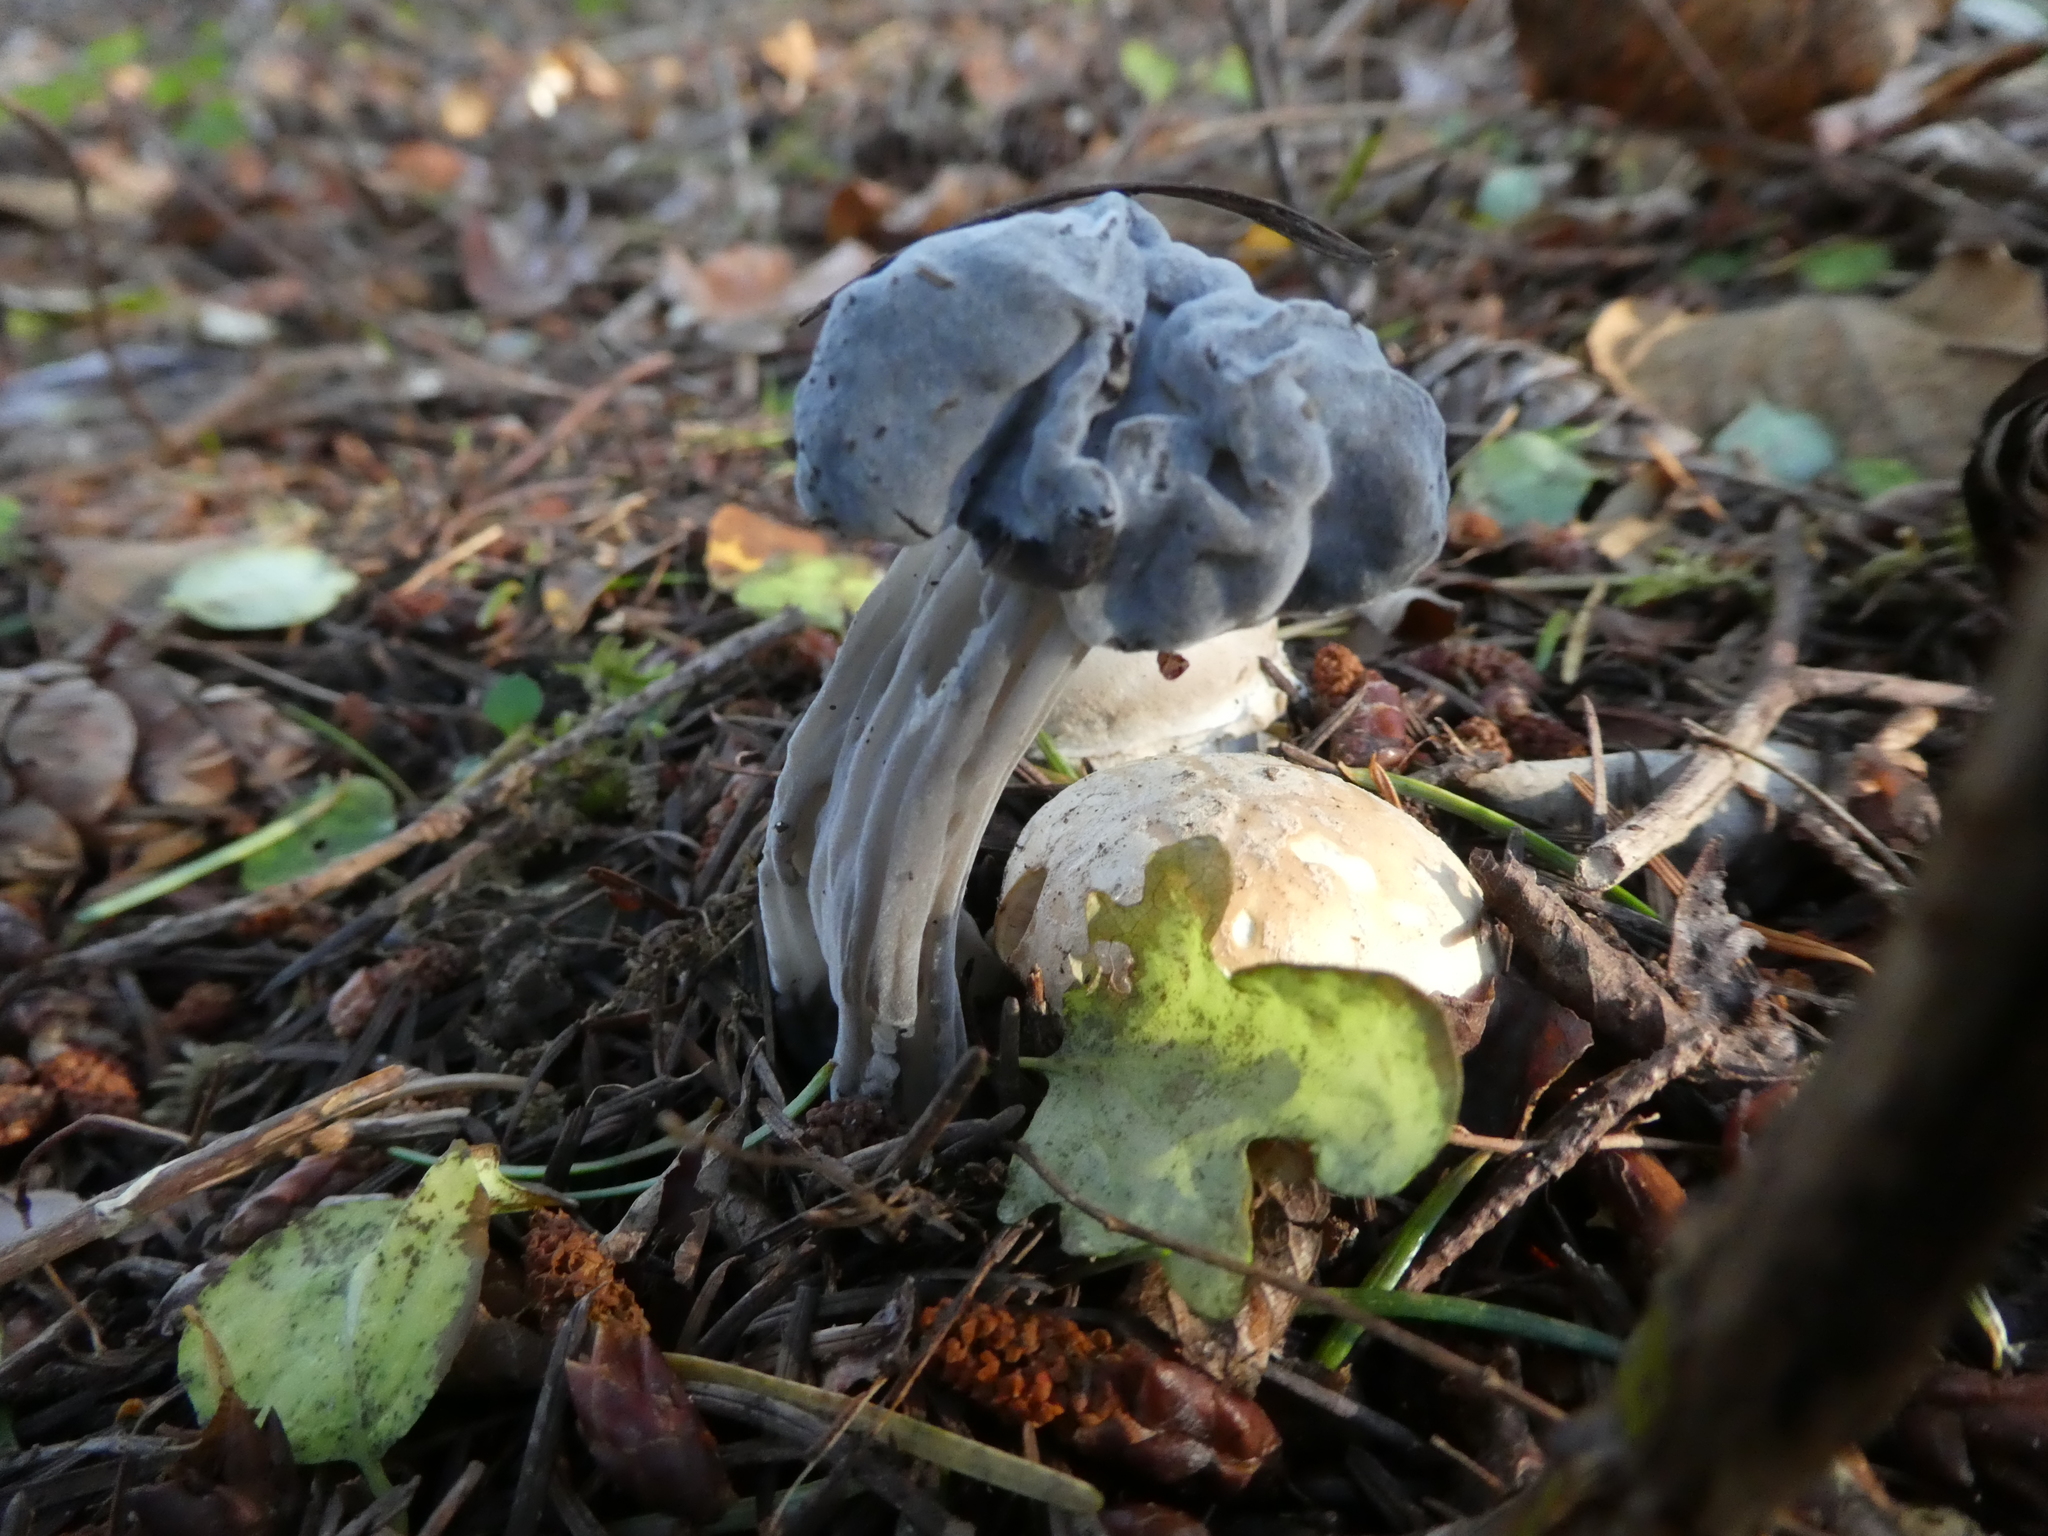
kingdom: Fungi
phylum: Ascomycota
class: Pezizomycetes
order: Pezizales
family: Helvellaceae
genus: Helvella
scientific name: Helvella vespertina
